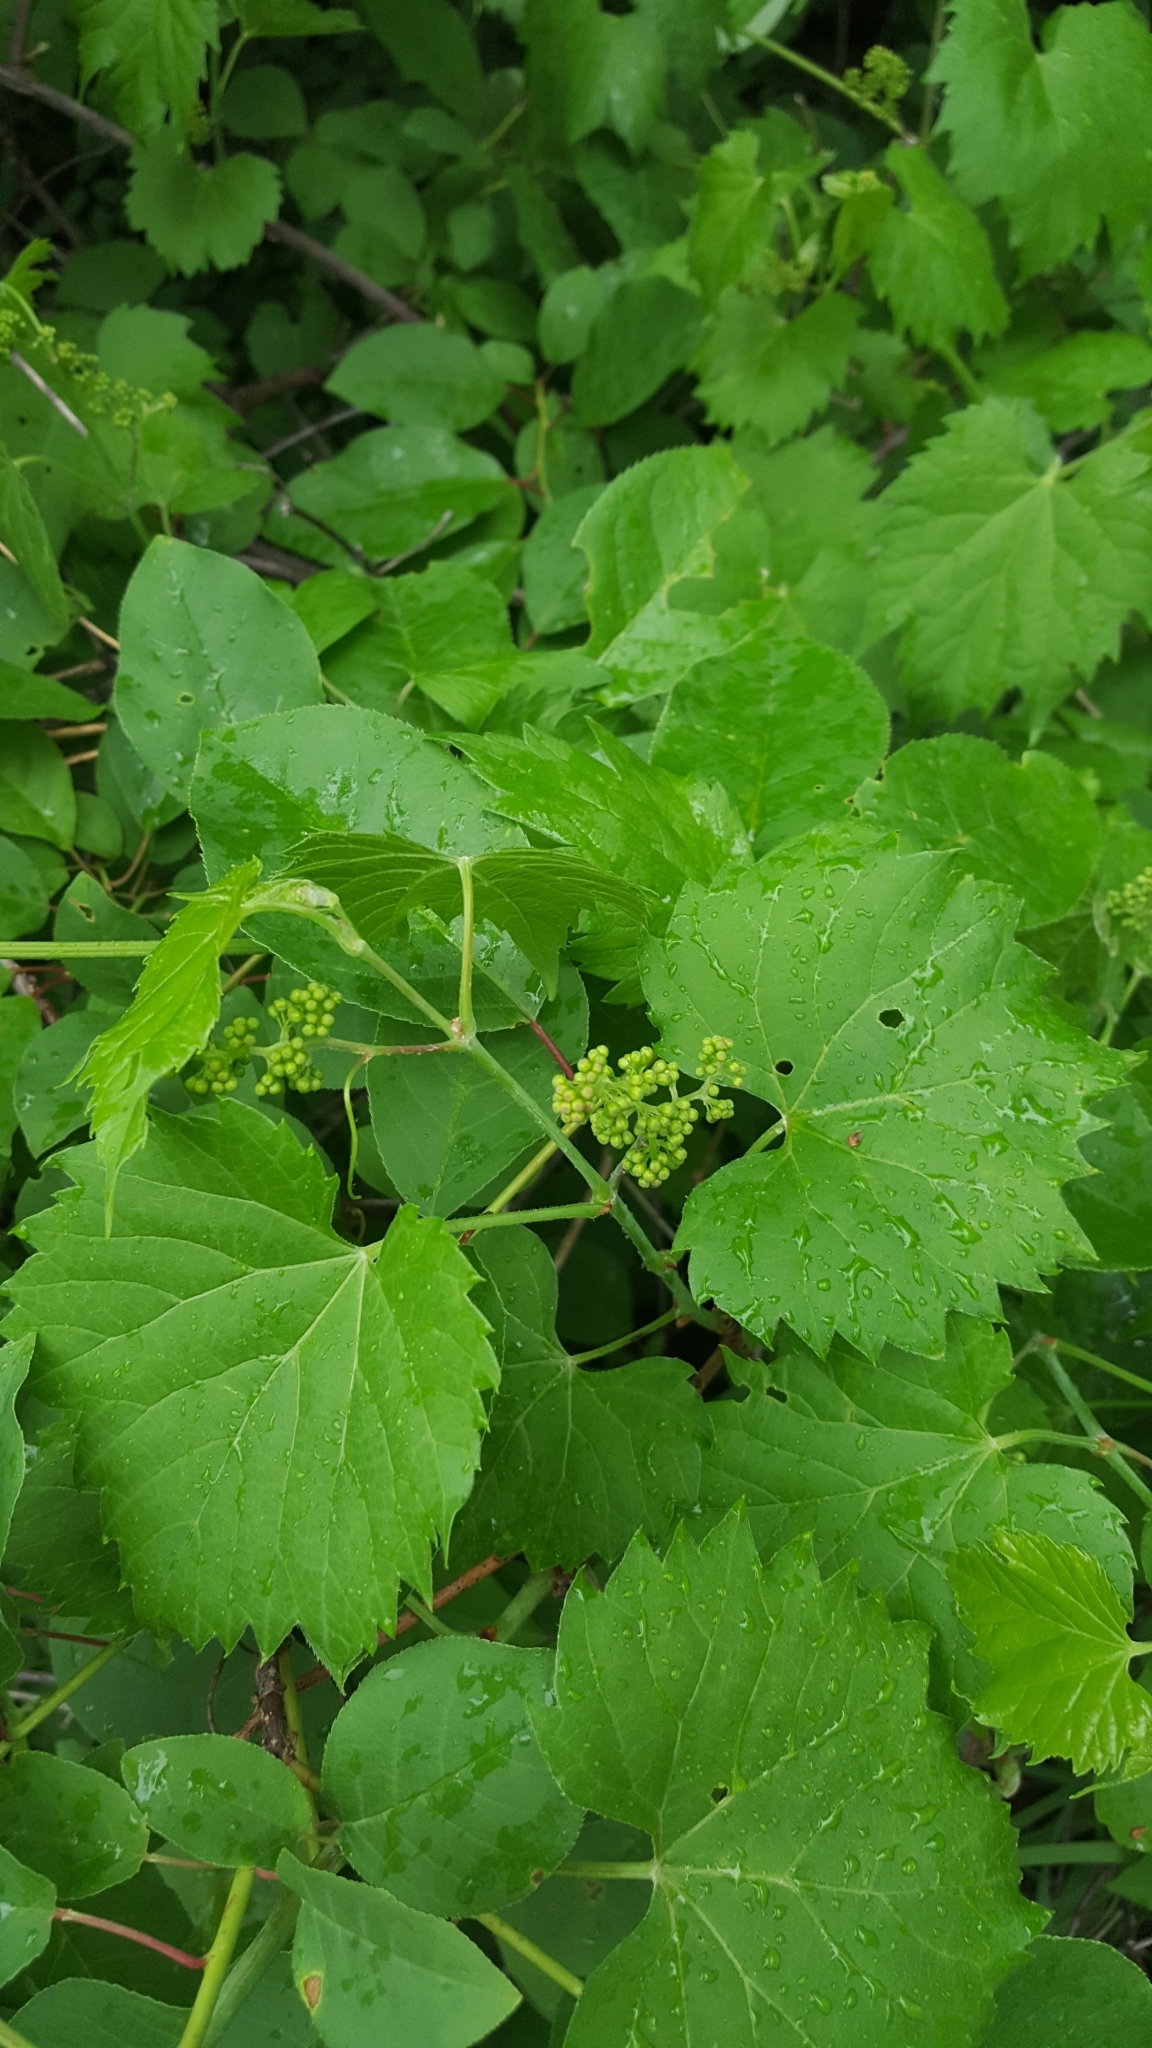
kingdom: Plantae
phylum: Tracheophyta
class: Magnoliopsida
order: Vitales
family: Vitaceae
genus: Vitis
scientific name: Vitis riparia
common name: Frost grape
